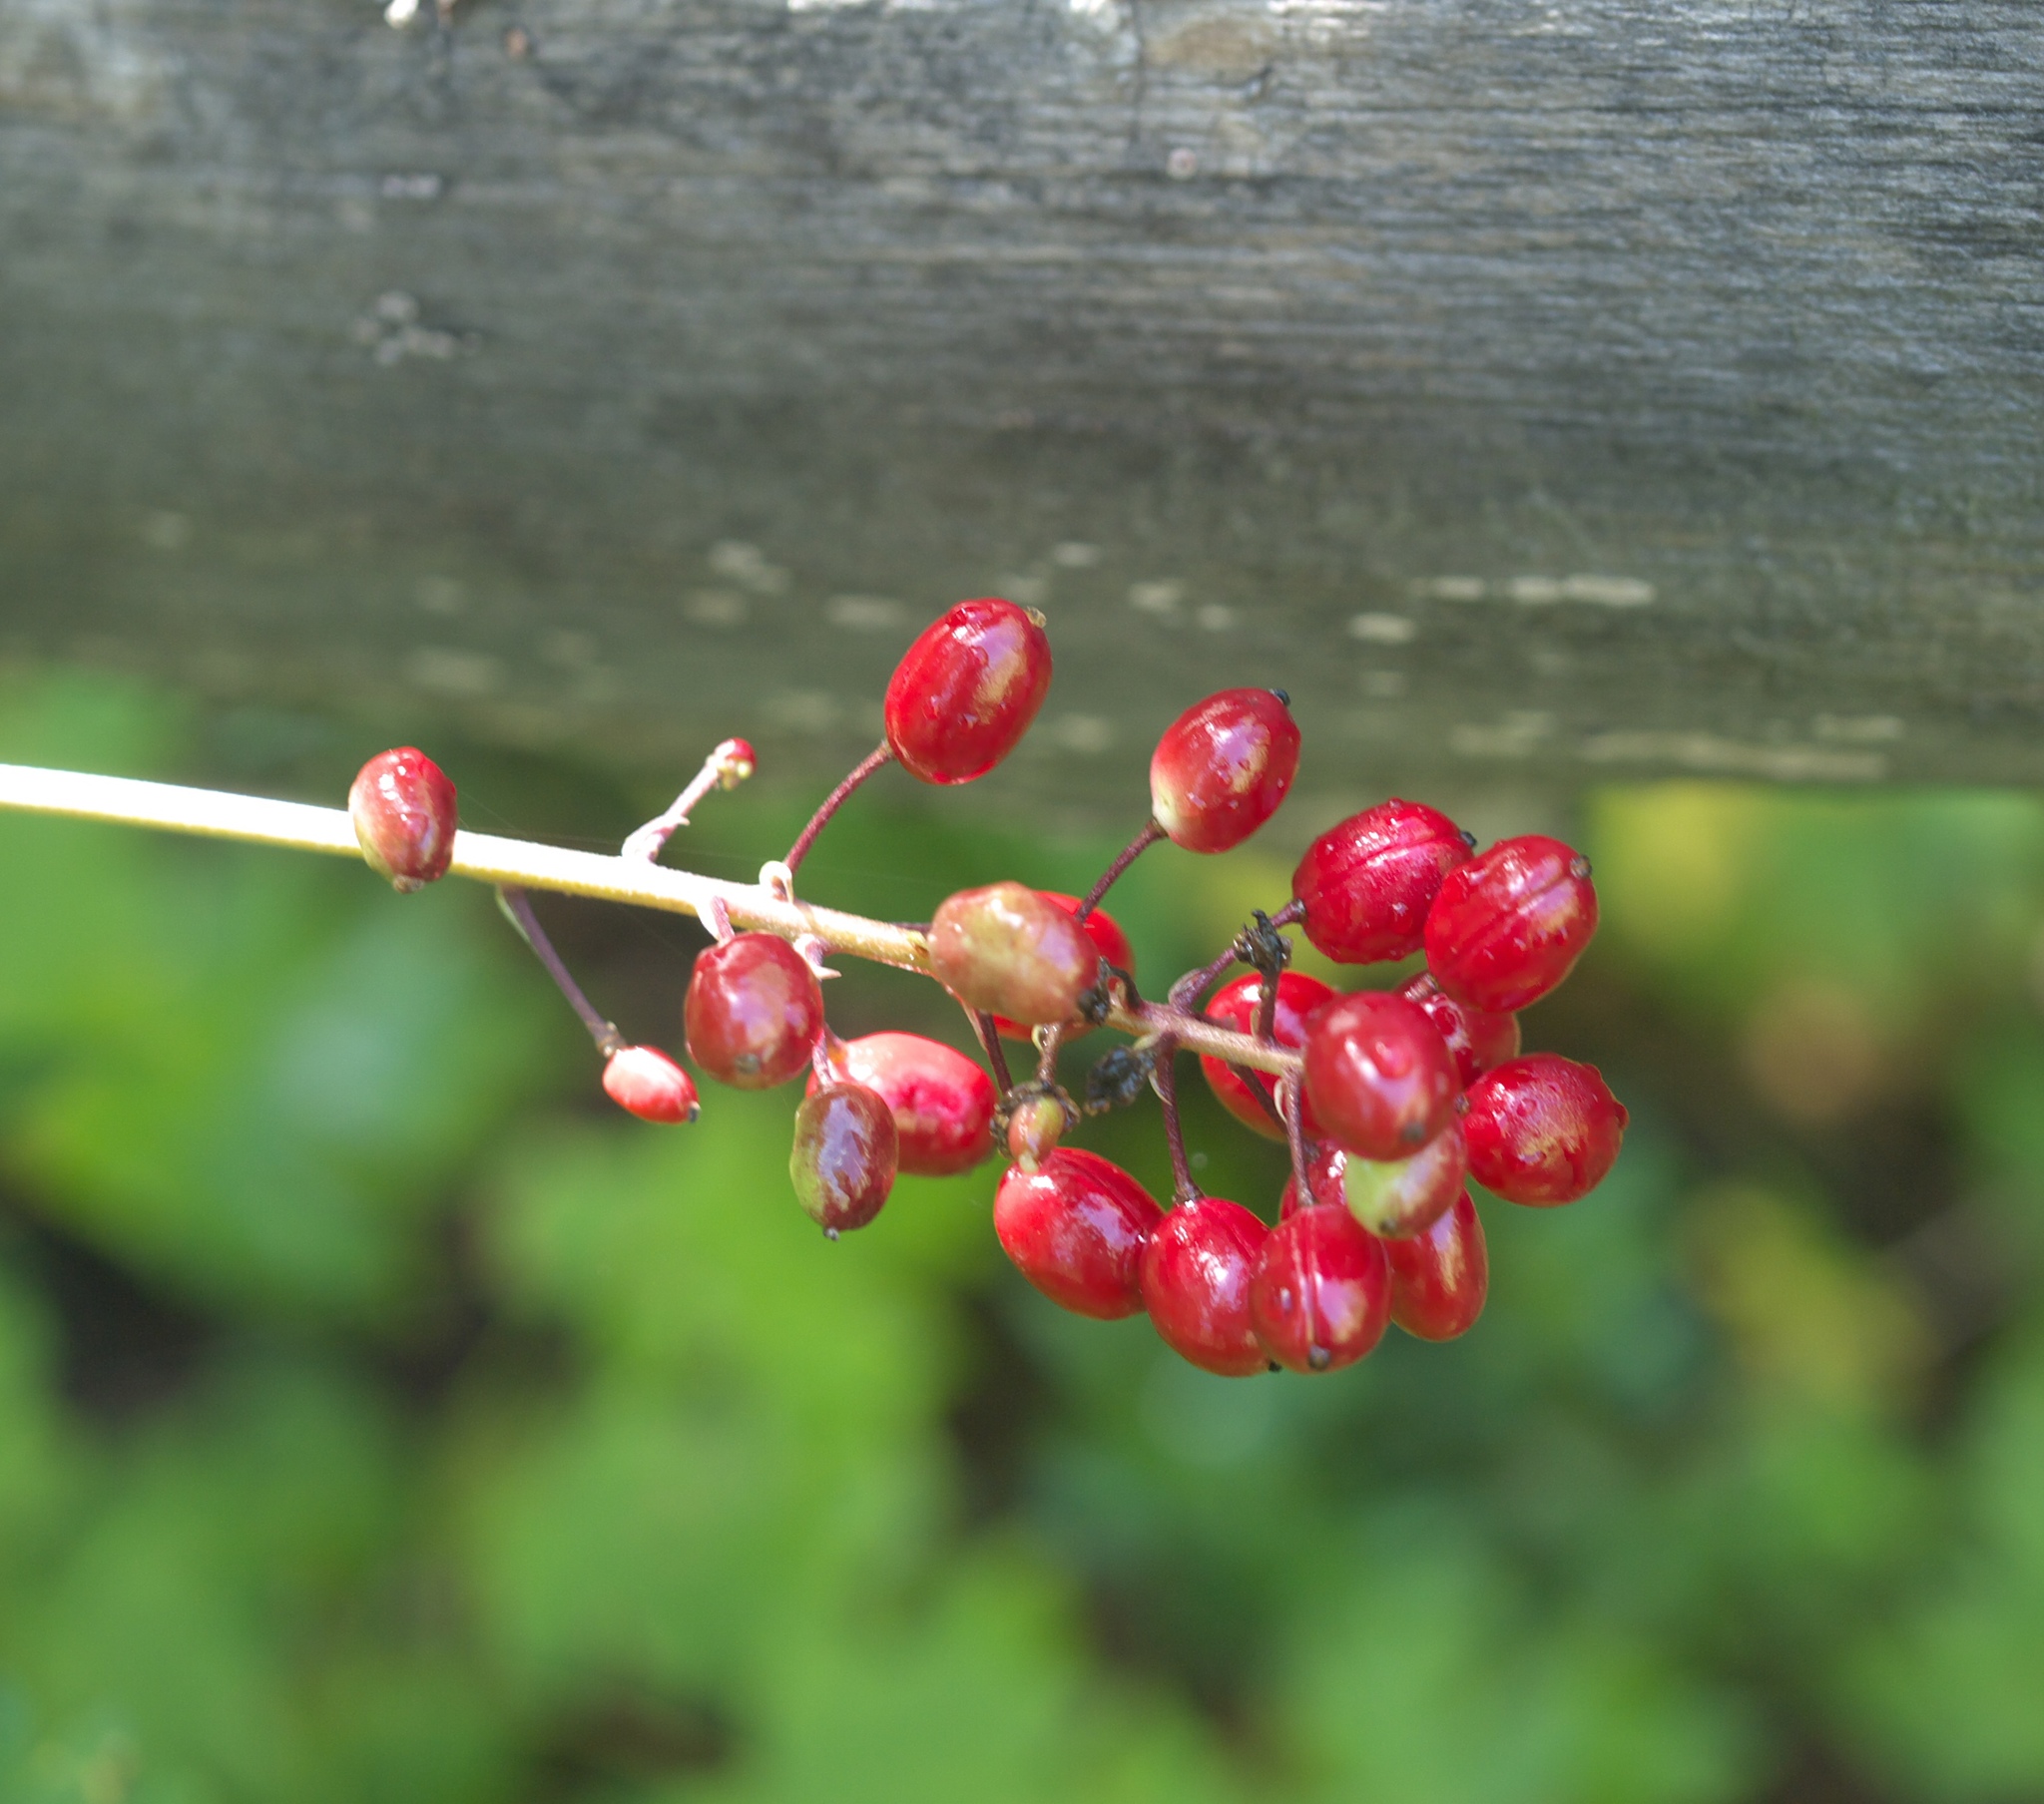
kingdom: Plantae
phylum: Tracheophyta
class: Magnoliopsida
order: Ranunculales
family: Ranunculaceae
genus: Actaea
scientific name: Actaea rubra
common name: Red baneberry
